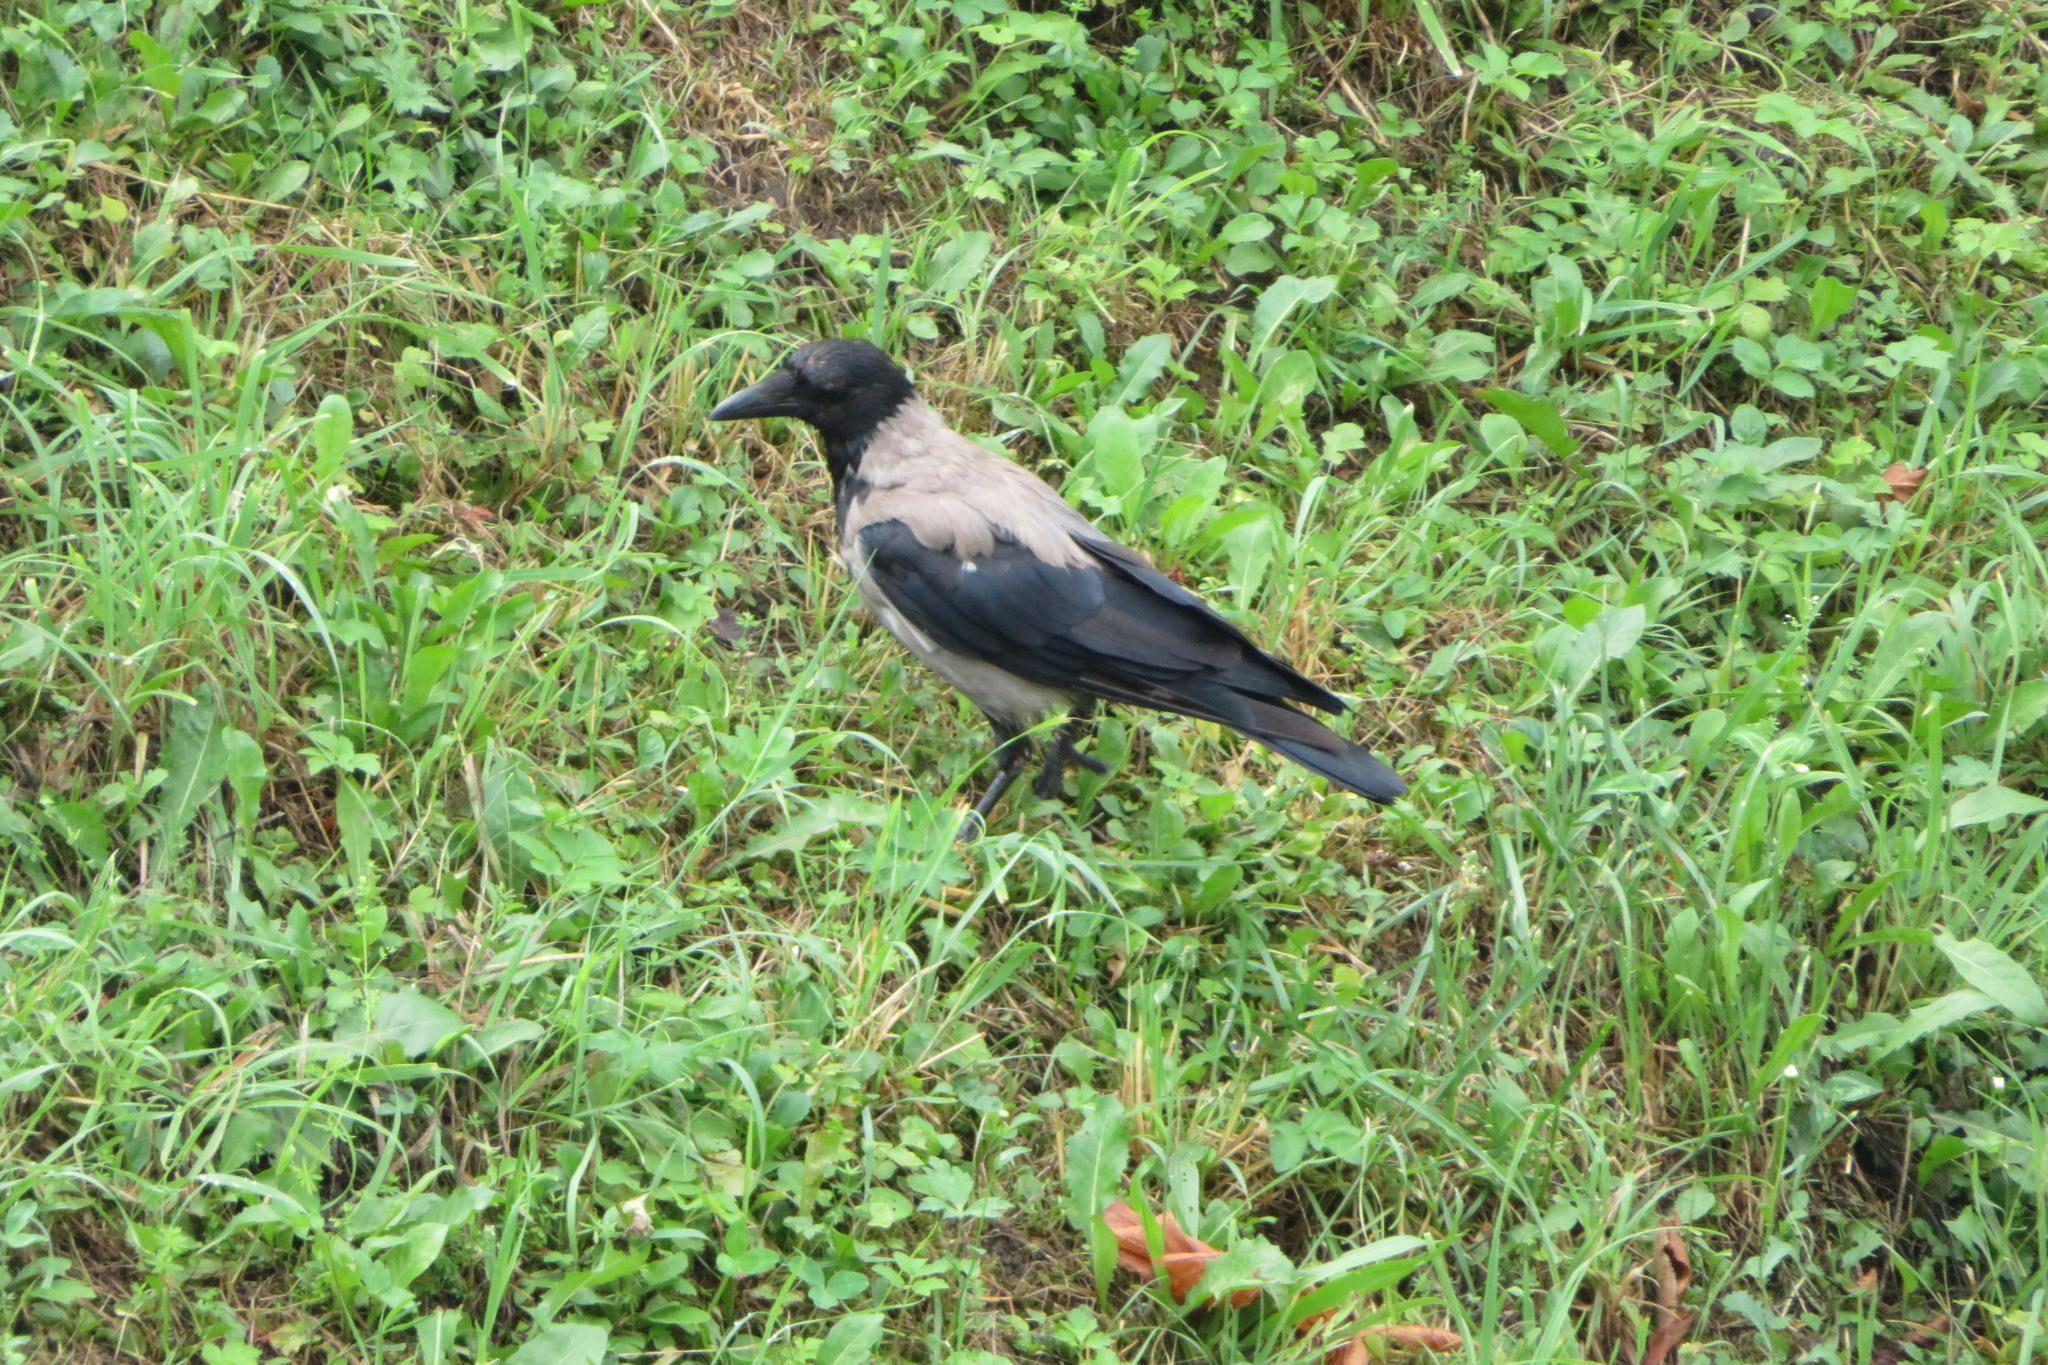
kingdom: Animalia
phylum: Chordata
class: Aves
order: Passeriformes
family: Corvidae
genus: Corvus
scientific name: Corvus cornix
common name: Hooded crow
